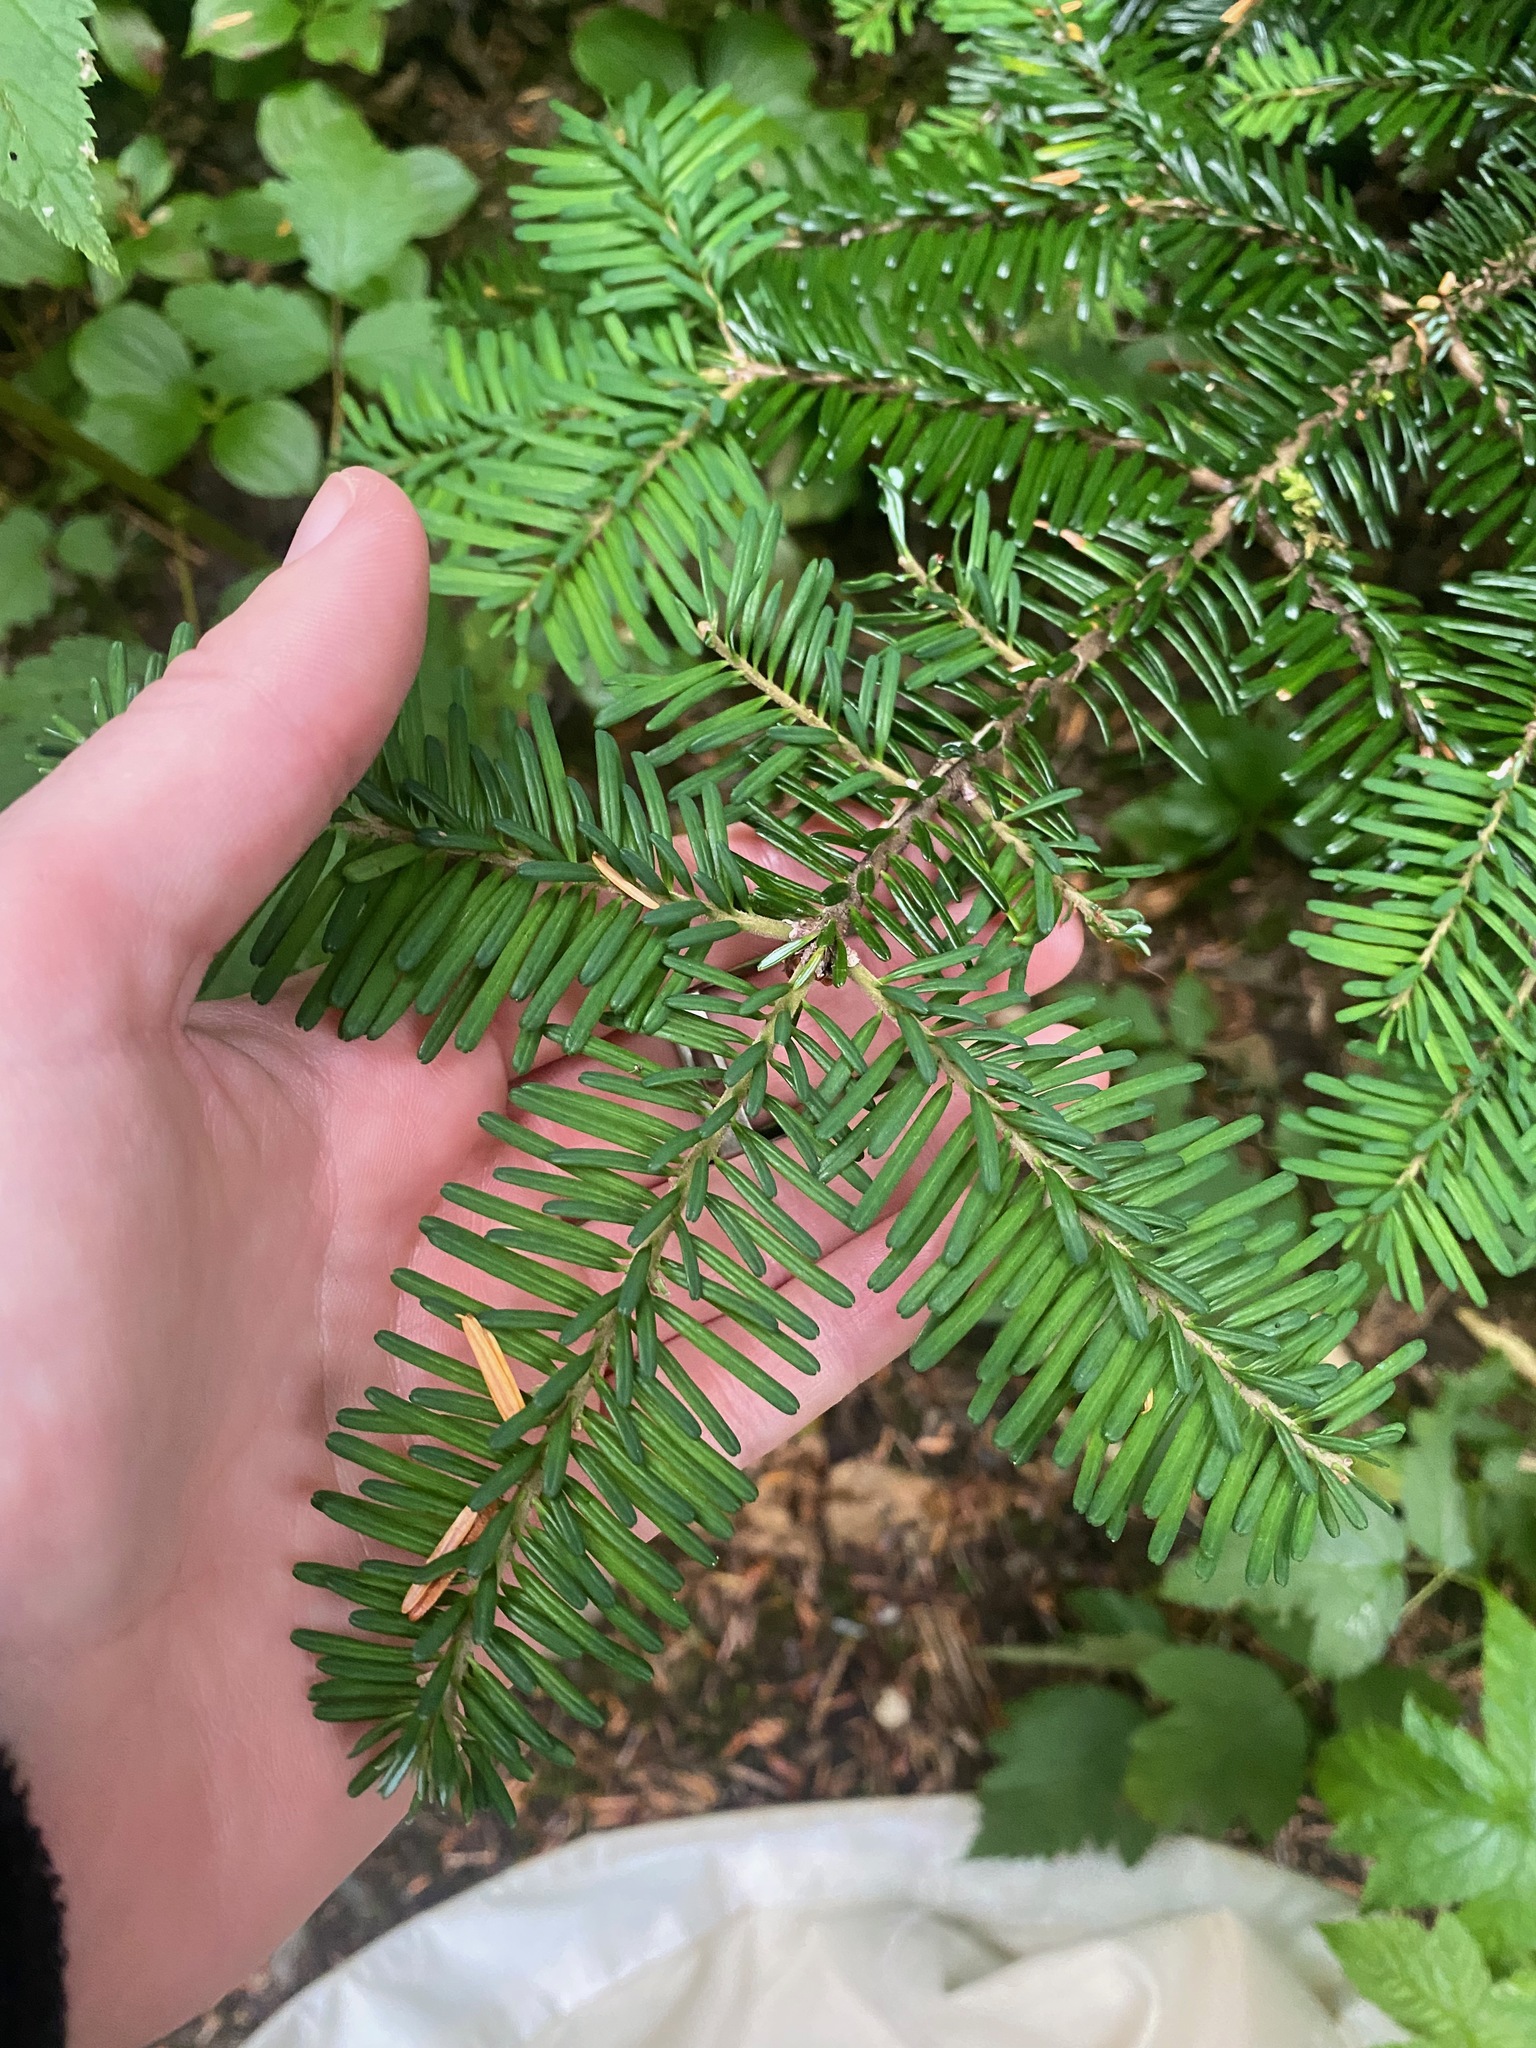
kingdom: Plantae
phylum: Tracheophyta
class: Pinopsida
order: Pinales
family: Pinaceae
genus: Abies
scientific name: Abies amabilis
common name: Pacific silver fir
